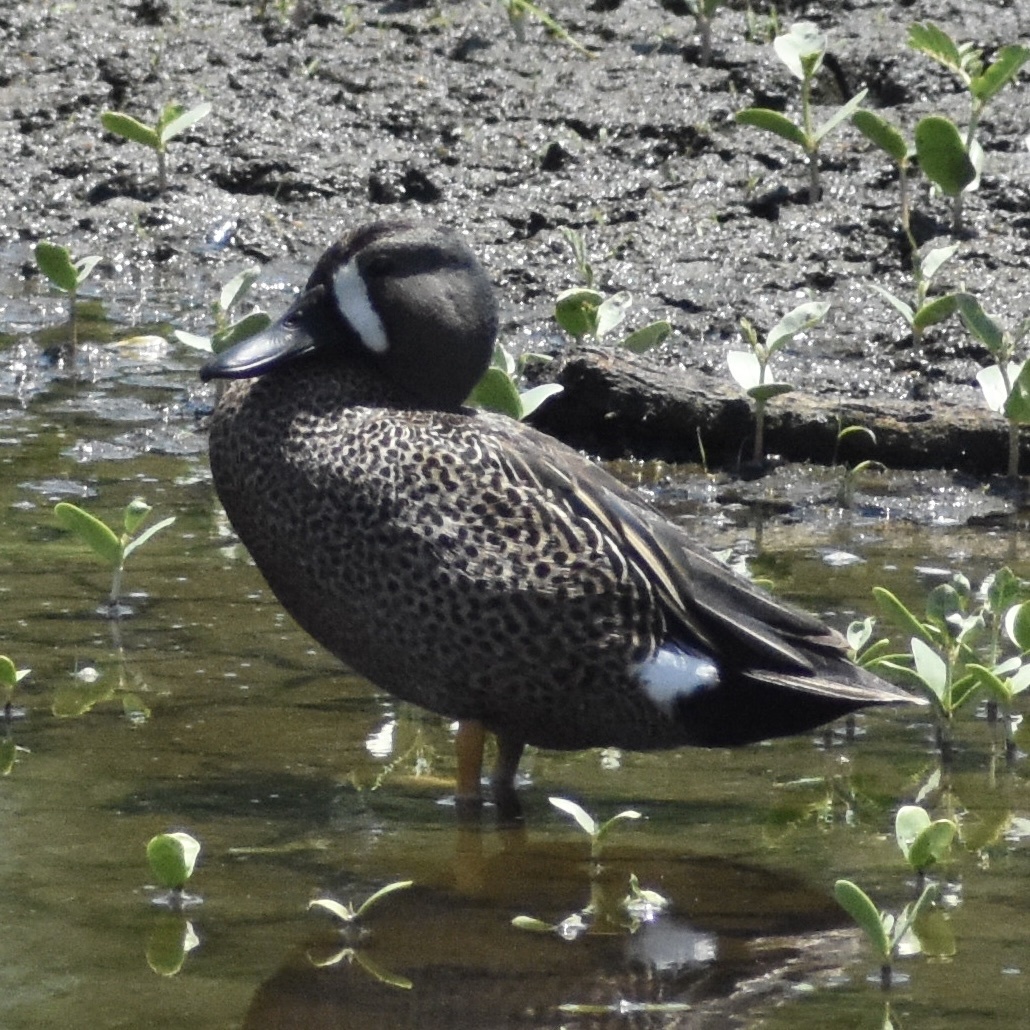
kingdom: Animalia
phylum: Chordata
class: Aves
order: Anseriformes
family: Anatidae
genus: Spatula
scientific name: Spatula discors
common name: Blue-winged teal
